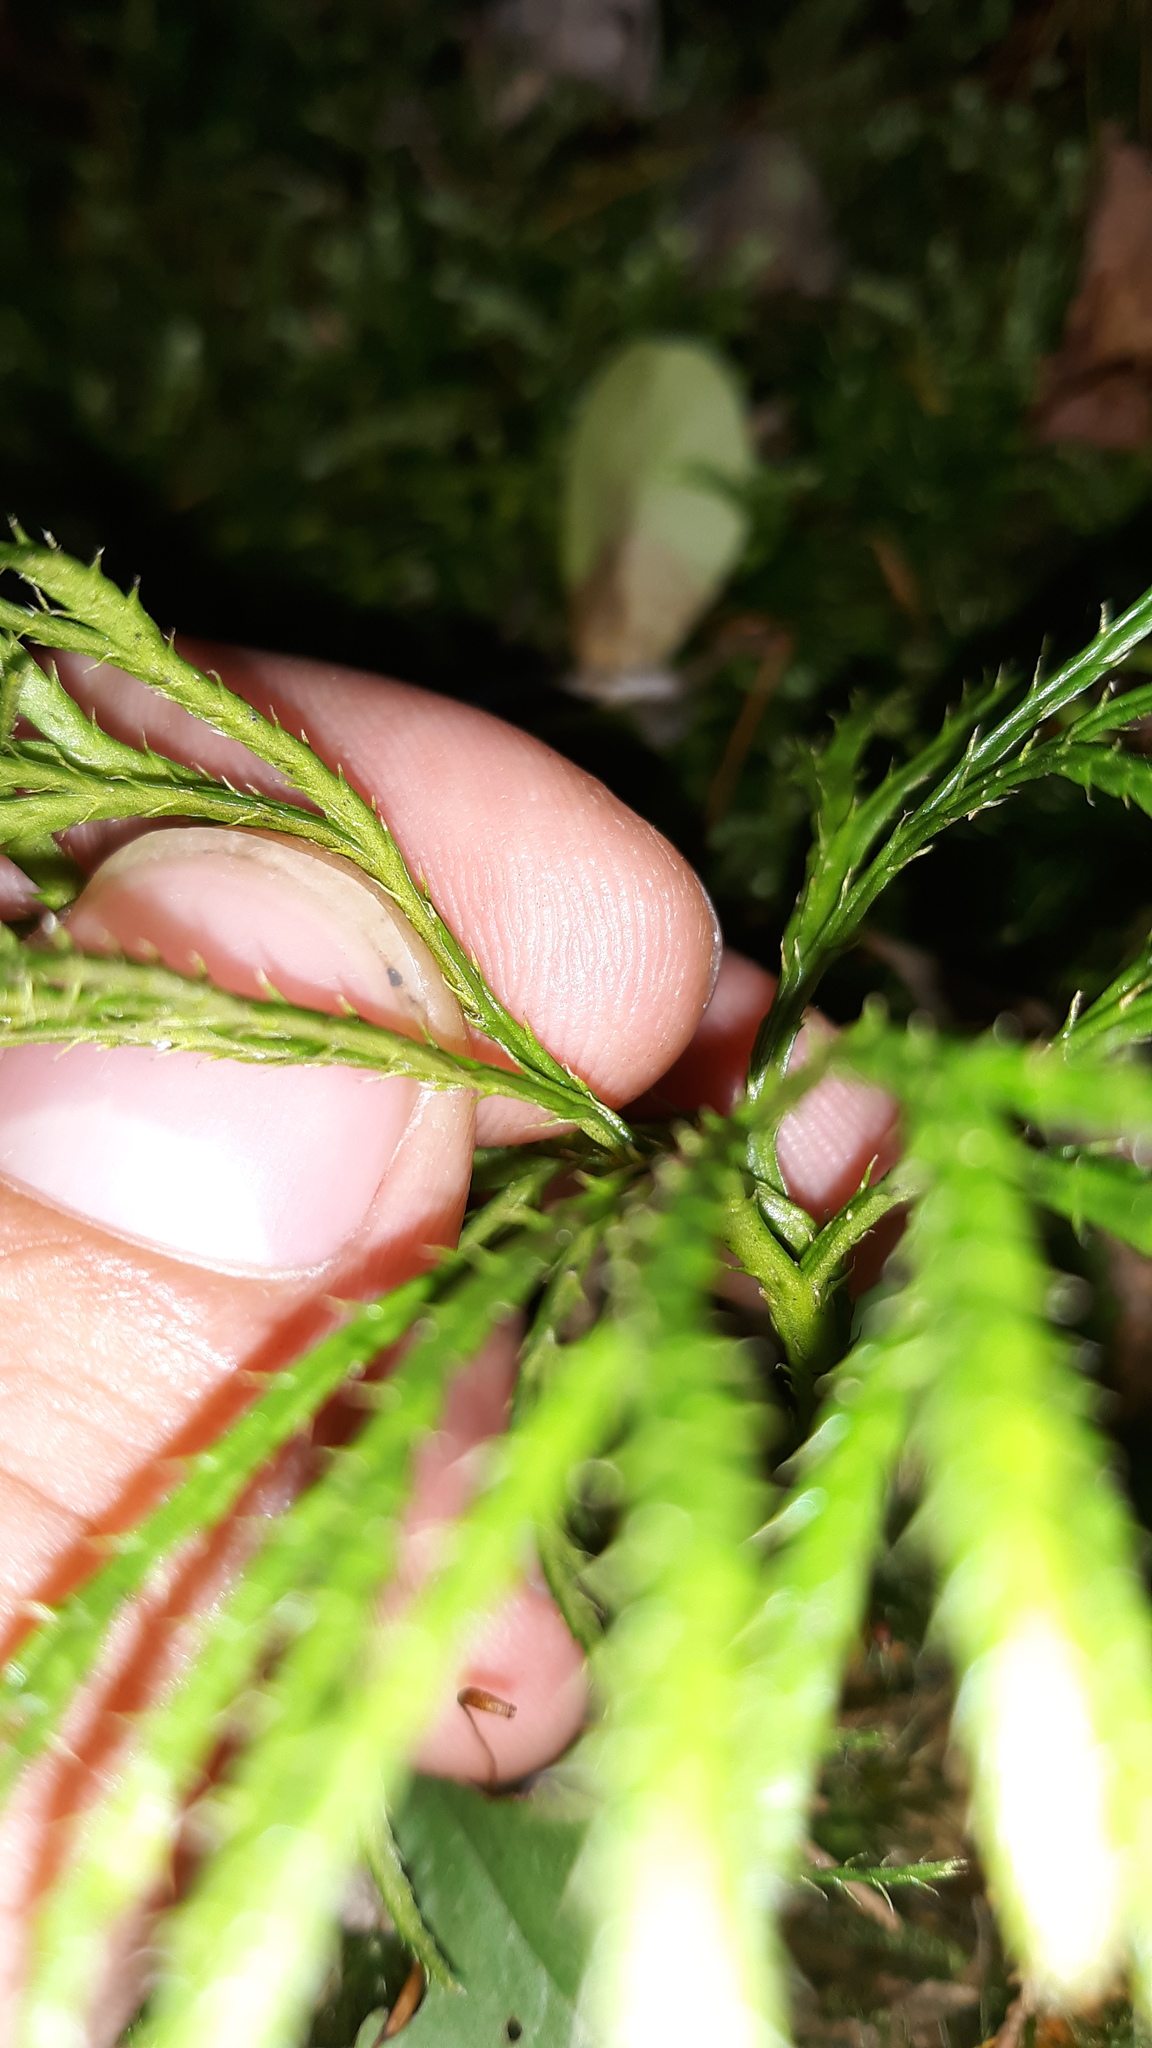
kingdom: Plantae
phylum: Tracheophyta
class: Lycopodiopsida
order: Lycopodiales
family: Lycopodiaceae
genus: Diphasiastrum
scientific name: Diphasiastrum digitatum
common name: Southern running-pine
